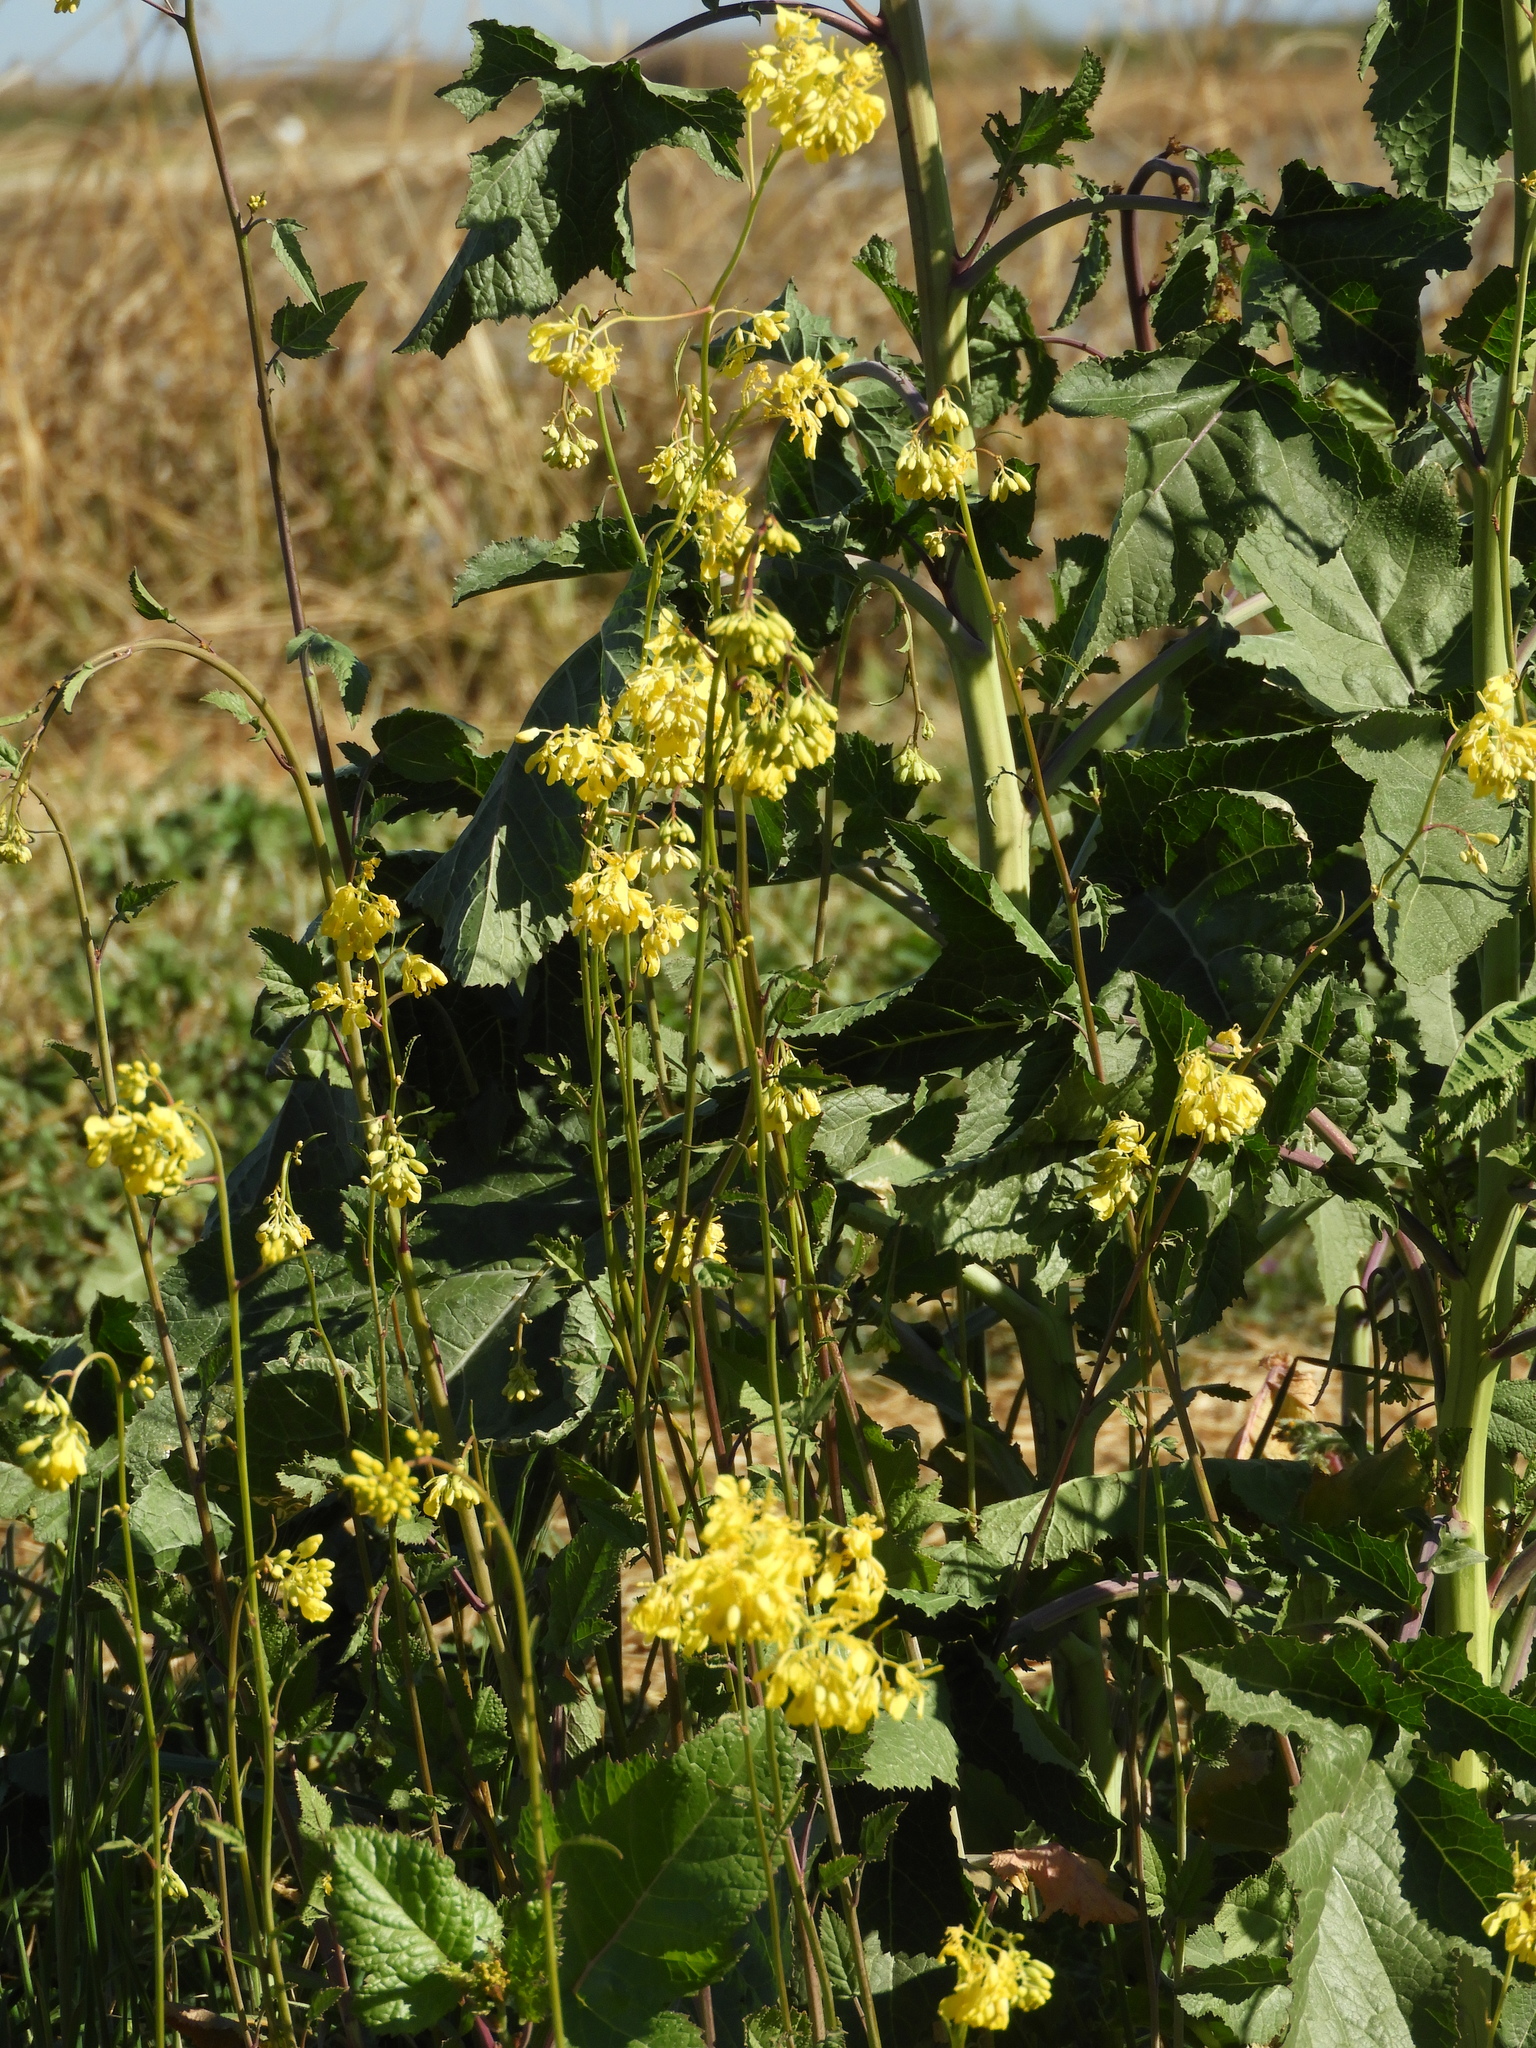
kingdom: Plantae
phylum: Tracheophyta
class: Magnoliopsida
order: Brassicales
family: Brassicaceae
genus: Brassica
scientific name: Brassica nigra
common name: Black mustard
